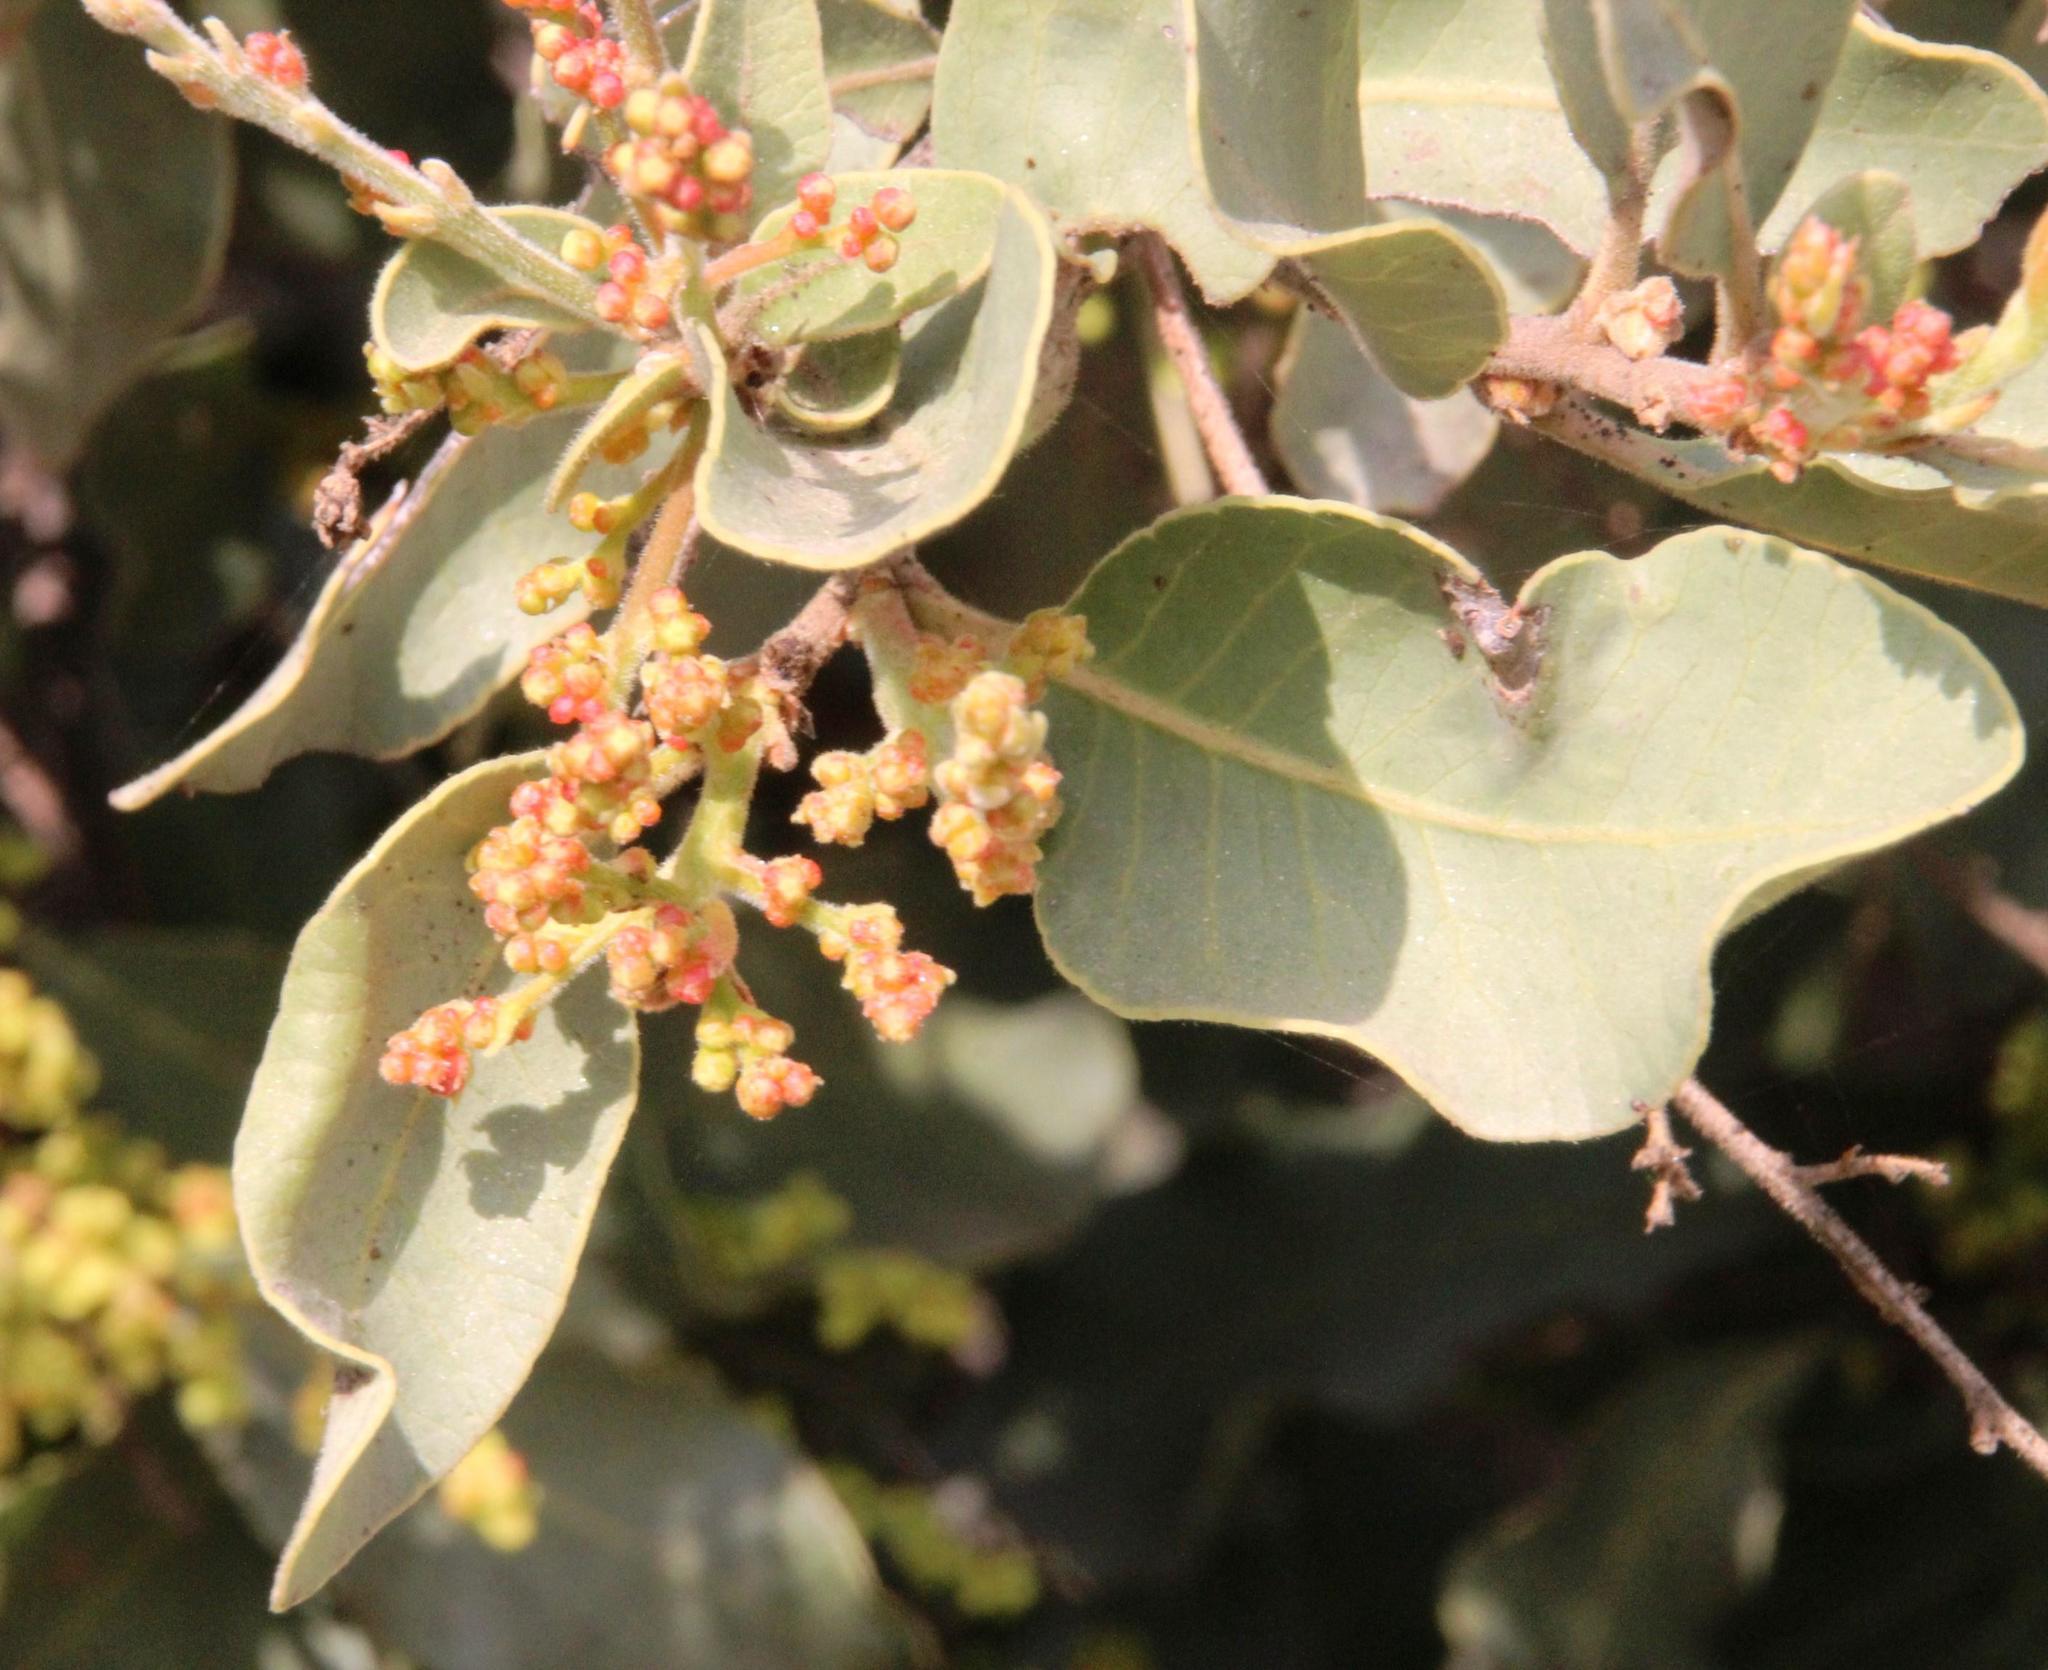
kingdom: Plantae
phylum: Tracheophyta
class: Magnoliopsida
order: Sapindales
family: Anacardiaceae
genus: Lithraea
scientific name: Lithraea caustica
